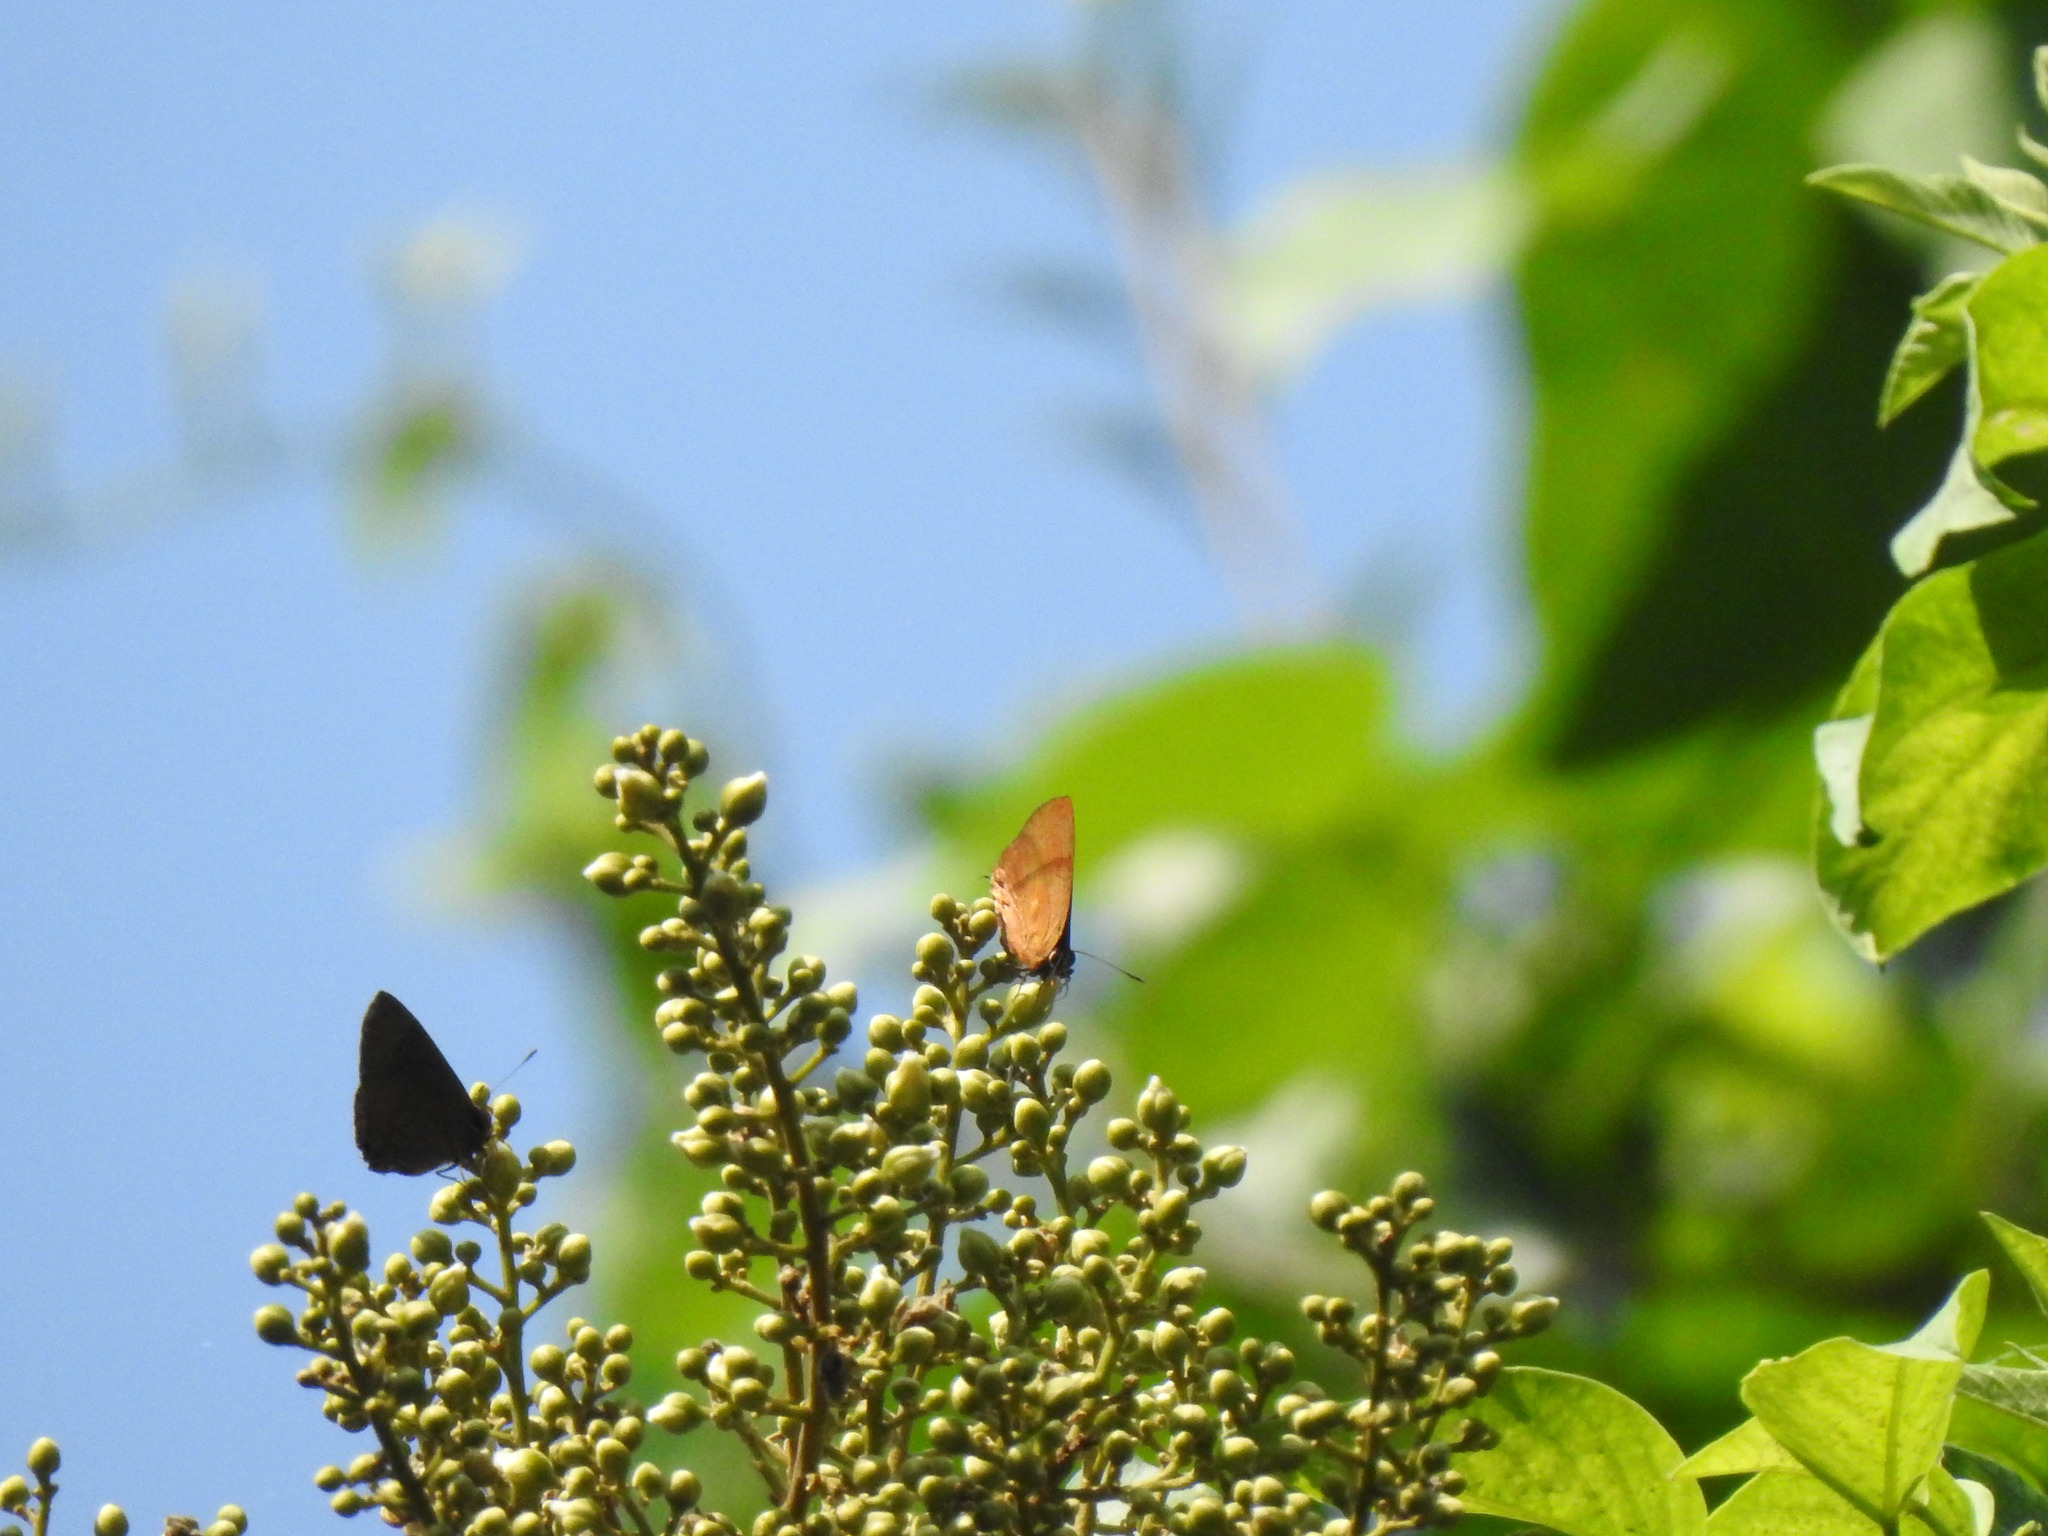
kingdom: Animalia
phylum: Arthropoda
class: Insecta
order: Lepidoptera
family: Lycaenidae
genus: Rapala
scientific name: Rapala lankana
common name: Malabar flash
